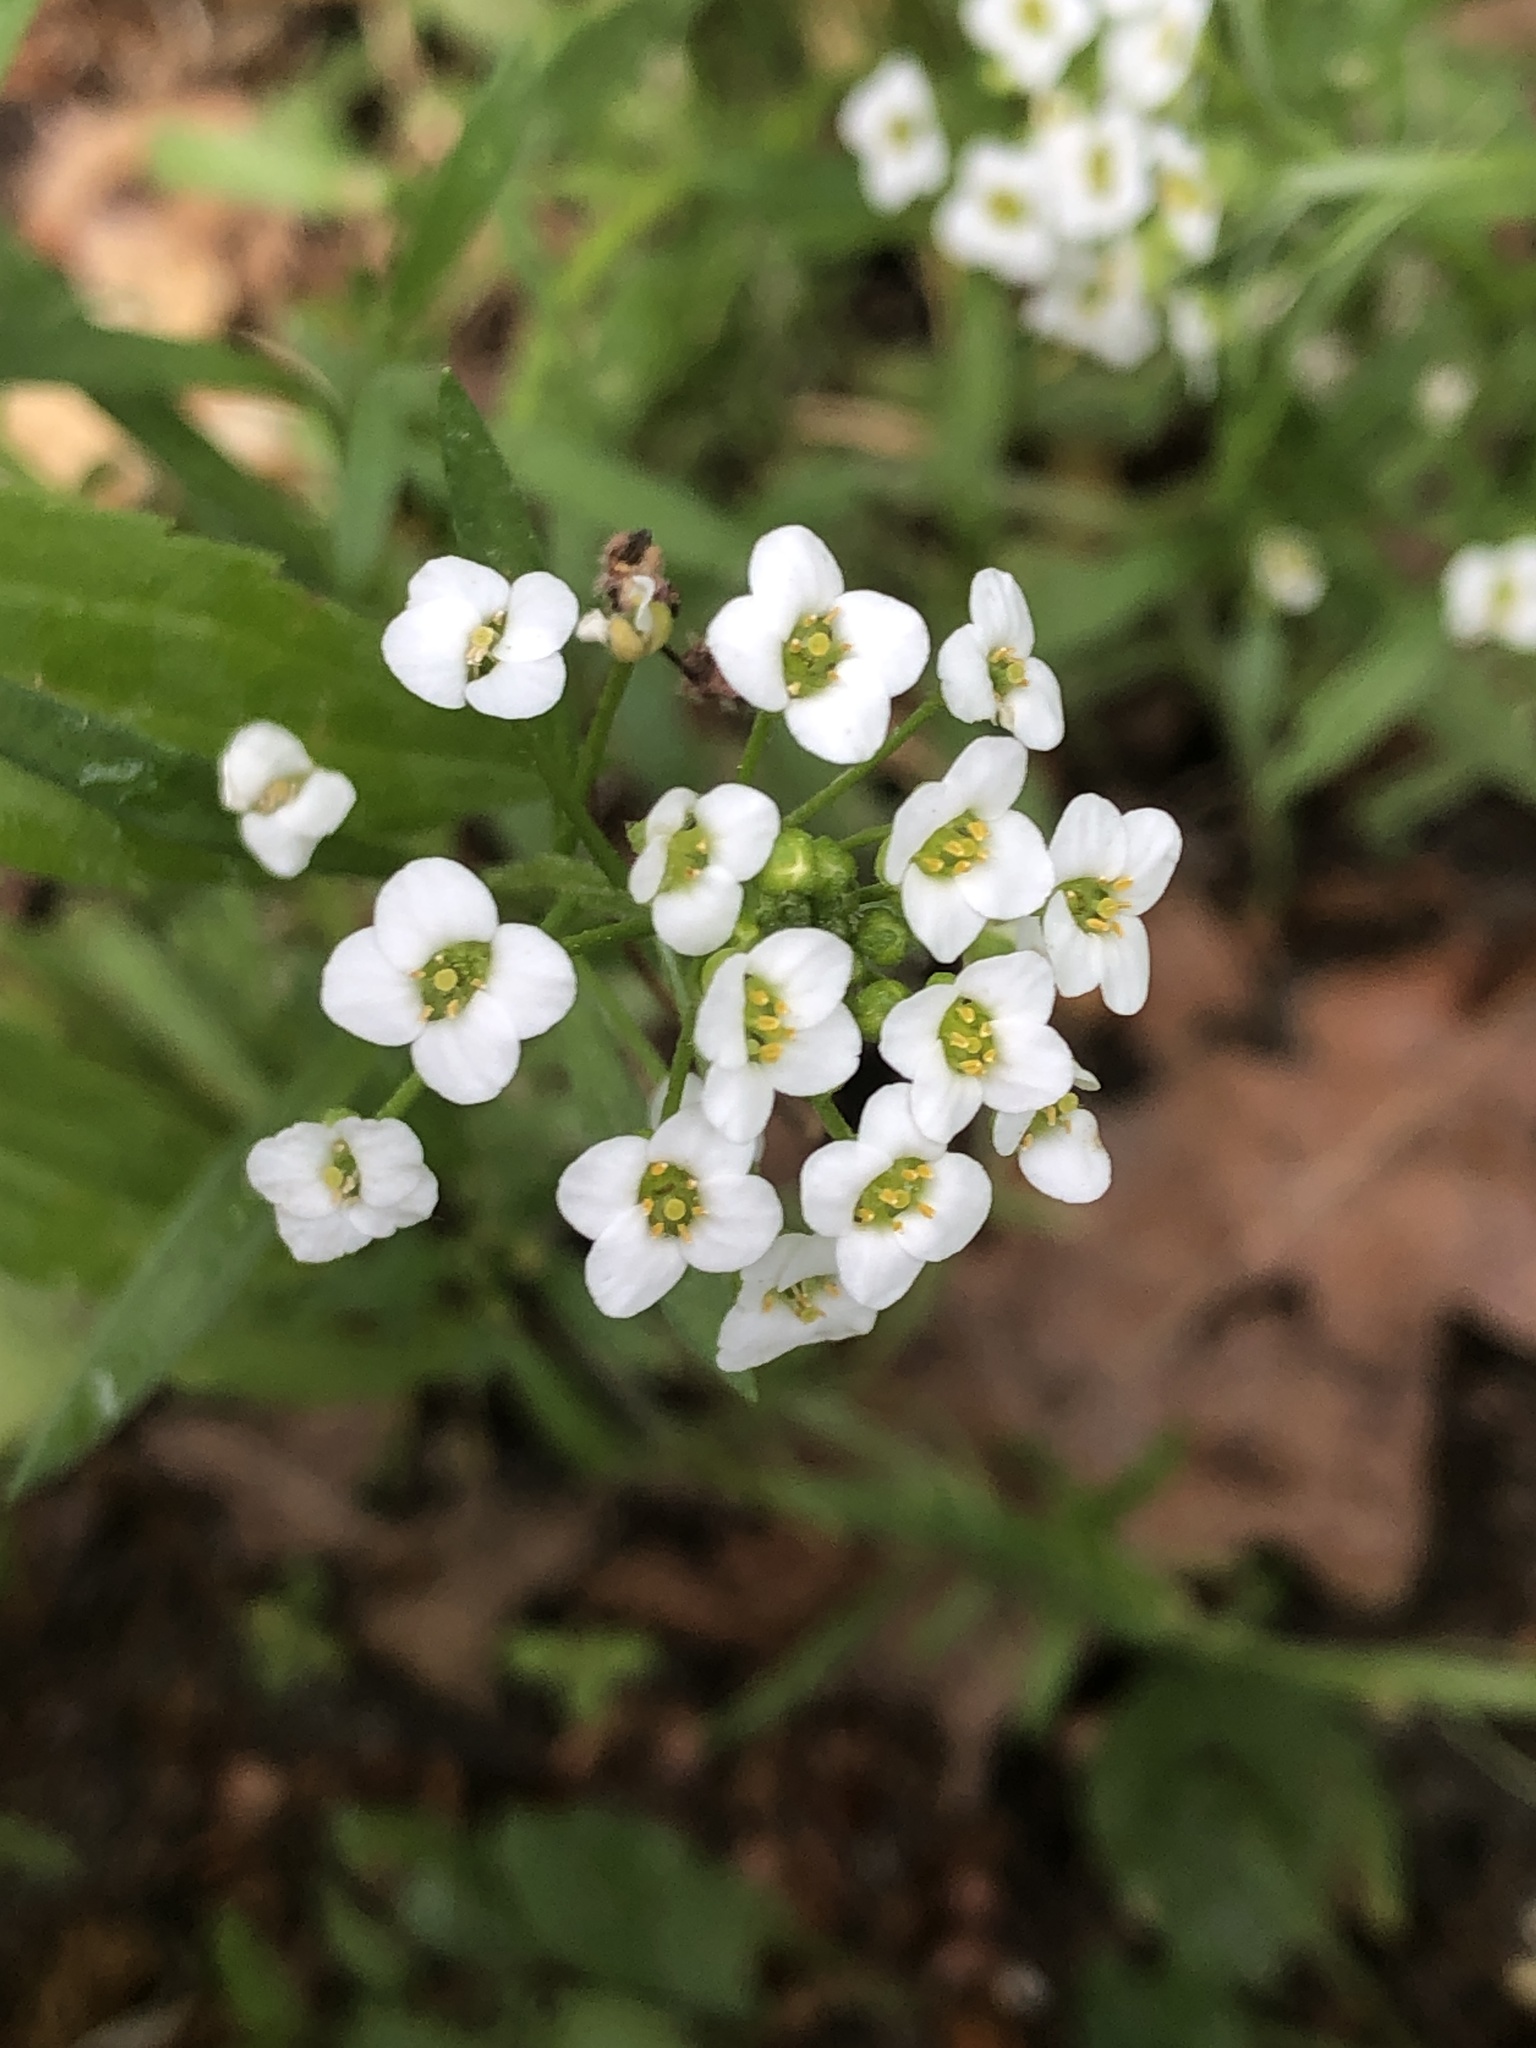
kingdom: Plantae
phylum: Tracheophyta
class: Magnoliopsida
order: Brassicales
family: Brassicaceae
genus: Lobularia
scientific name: Lobularia maritima
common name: Sweet alison
